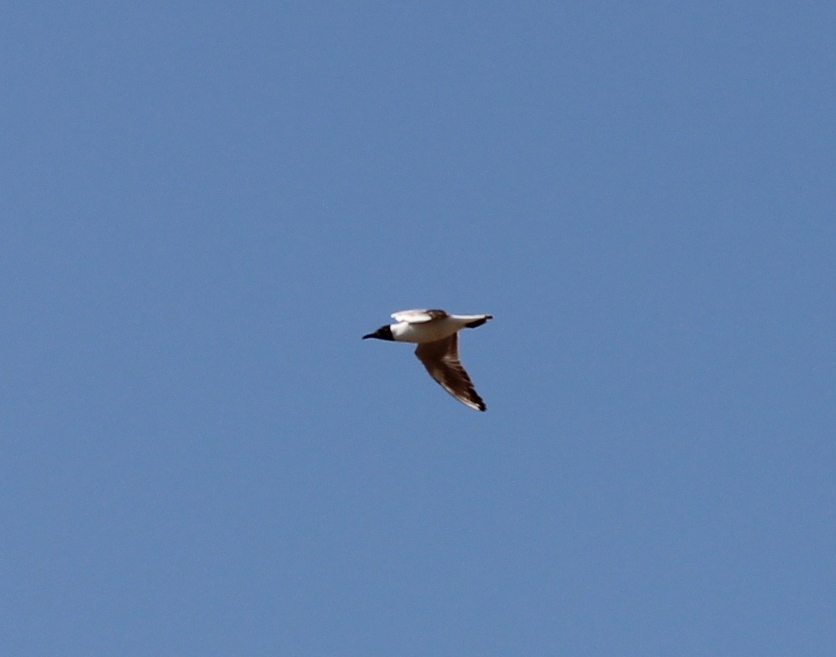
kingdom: Animalia
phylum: Chordata
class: Aves
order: Charadriiformes
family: Laridae
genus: Chroicocephalus
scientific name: Chroicocephalus ridibundus
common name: Black-headed gull
